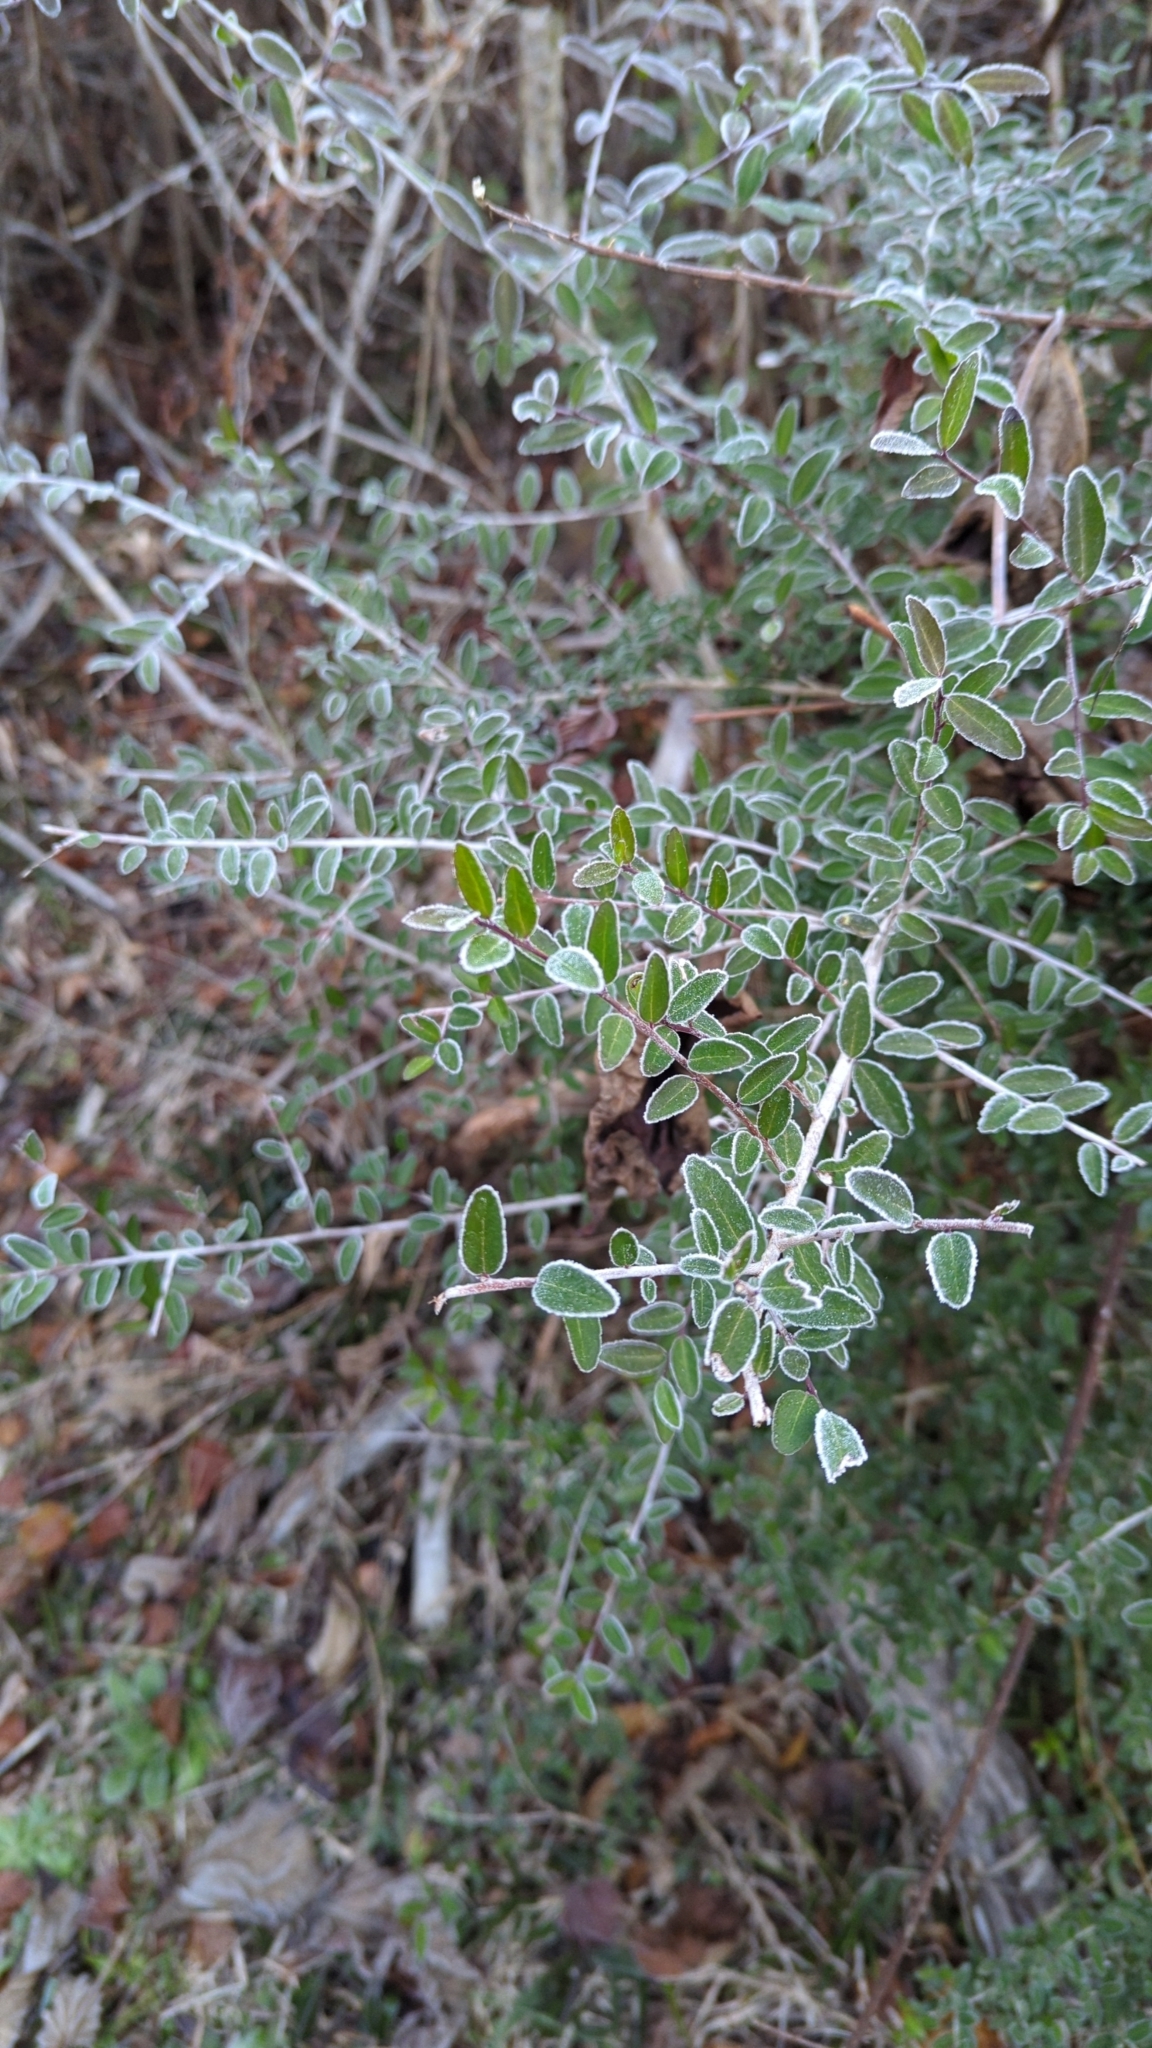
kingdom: Plantae
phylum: Tracheophyta
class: Magnoliopsida
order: Aquifoliales
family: Aquifoliaceae
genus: Ilex
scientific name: Ilex vomitoria
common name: Yaupon holly
